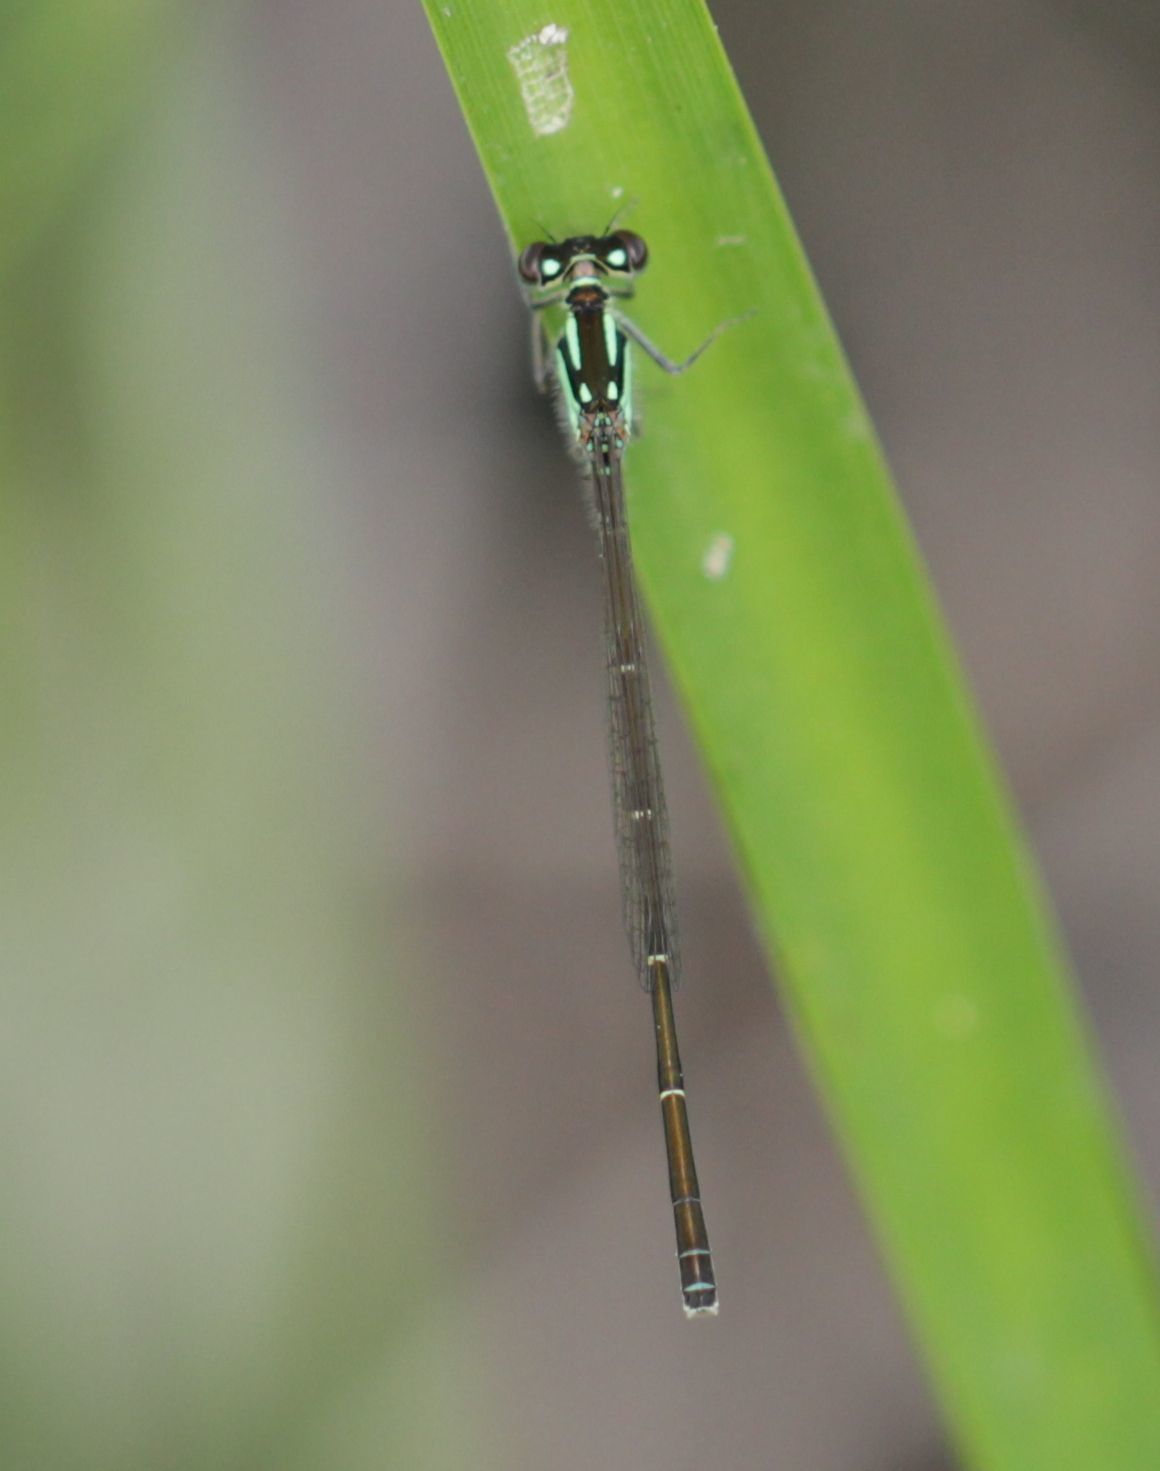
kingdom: Animalia
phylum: Arthropoda
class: Insecta
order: Odonata
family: Coenagrionidae
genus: Ischnura
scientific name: Ischnura posita
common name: Fragile forktail
